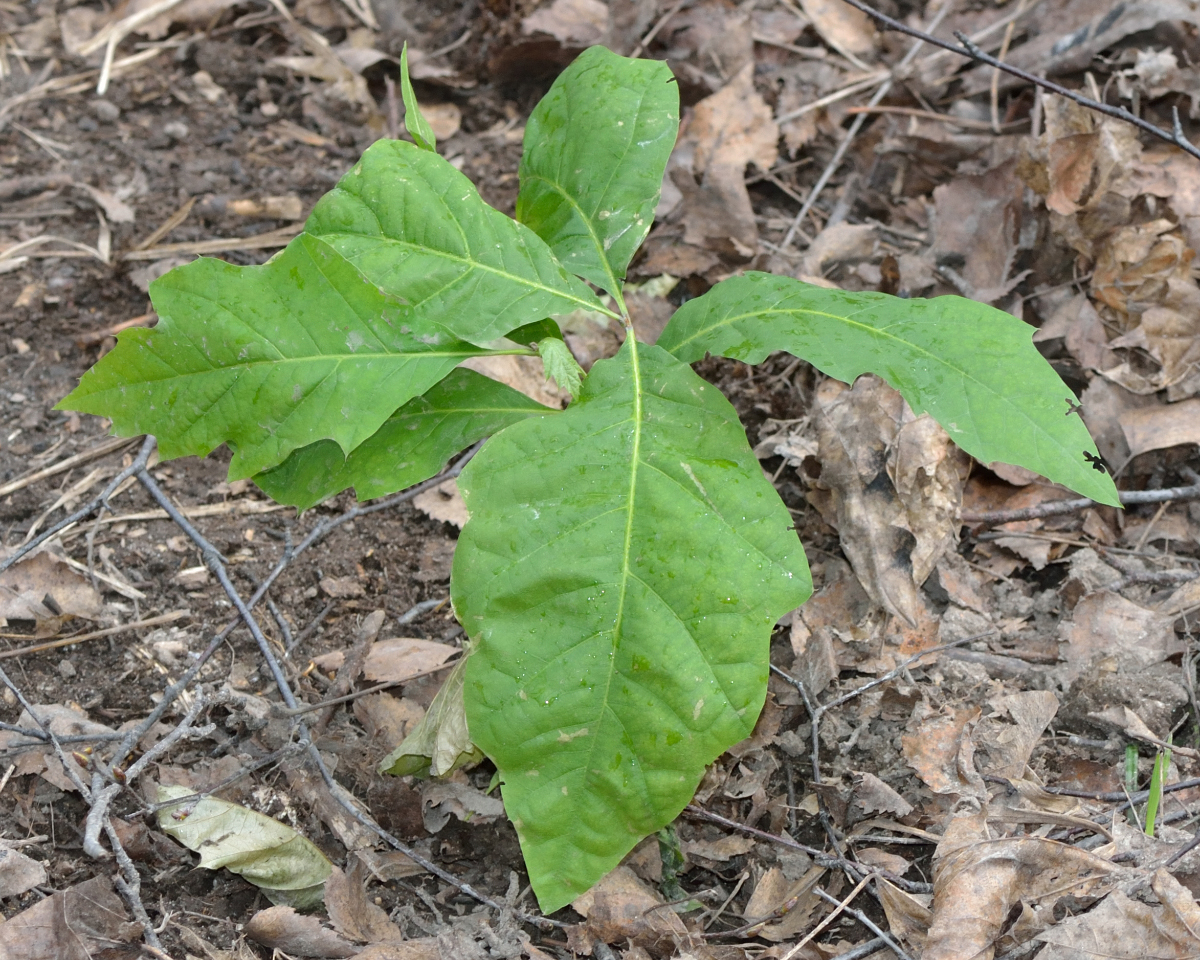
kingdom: Plantae
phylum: Tracheophyta
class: Magnoliopsida
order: Fagales
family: Fagaceae
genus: Quercus
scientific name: Quercus rubra
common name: Red oak
